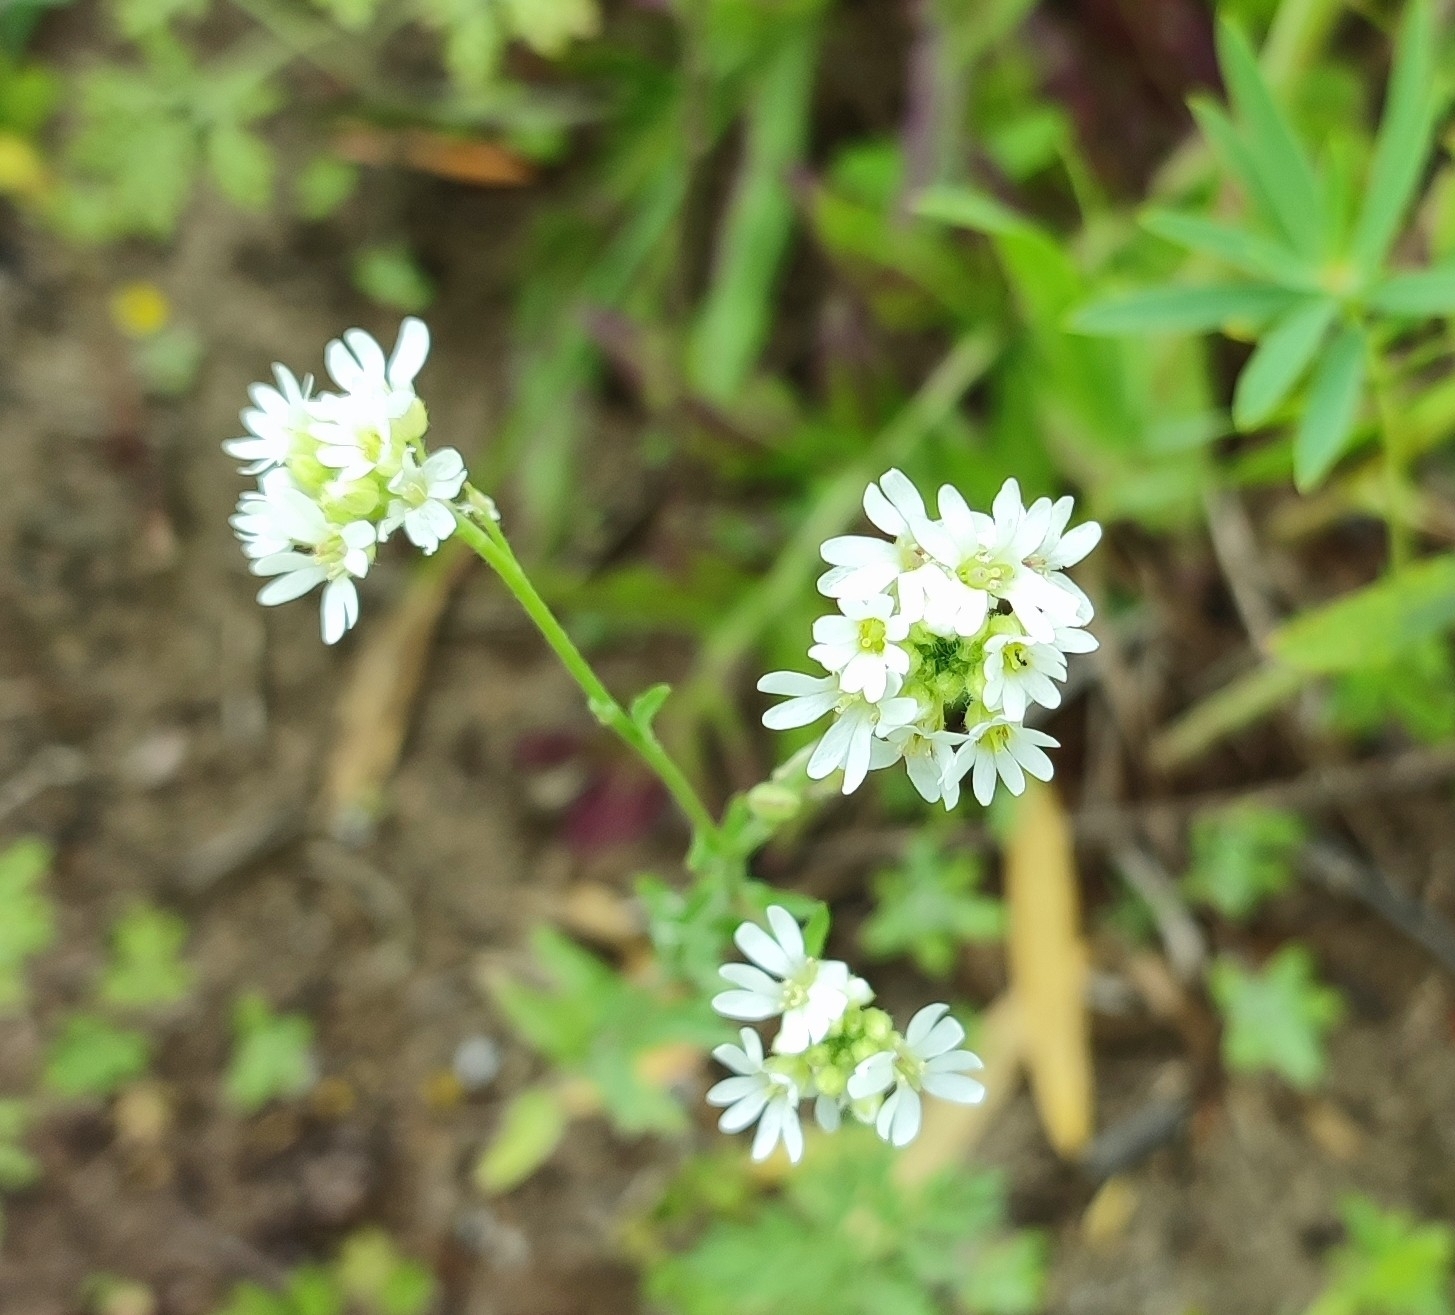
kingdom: Plantae
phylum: Tracheophyta
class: Magnoliopsida
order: Brassicales
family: Brassicaceae
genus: Berteroa
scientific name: Berteroa incana
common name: Hoary alison
